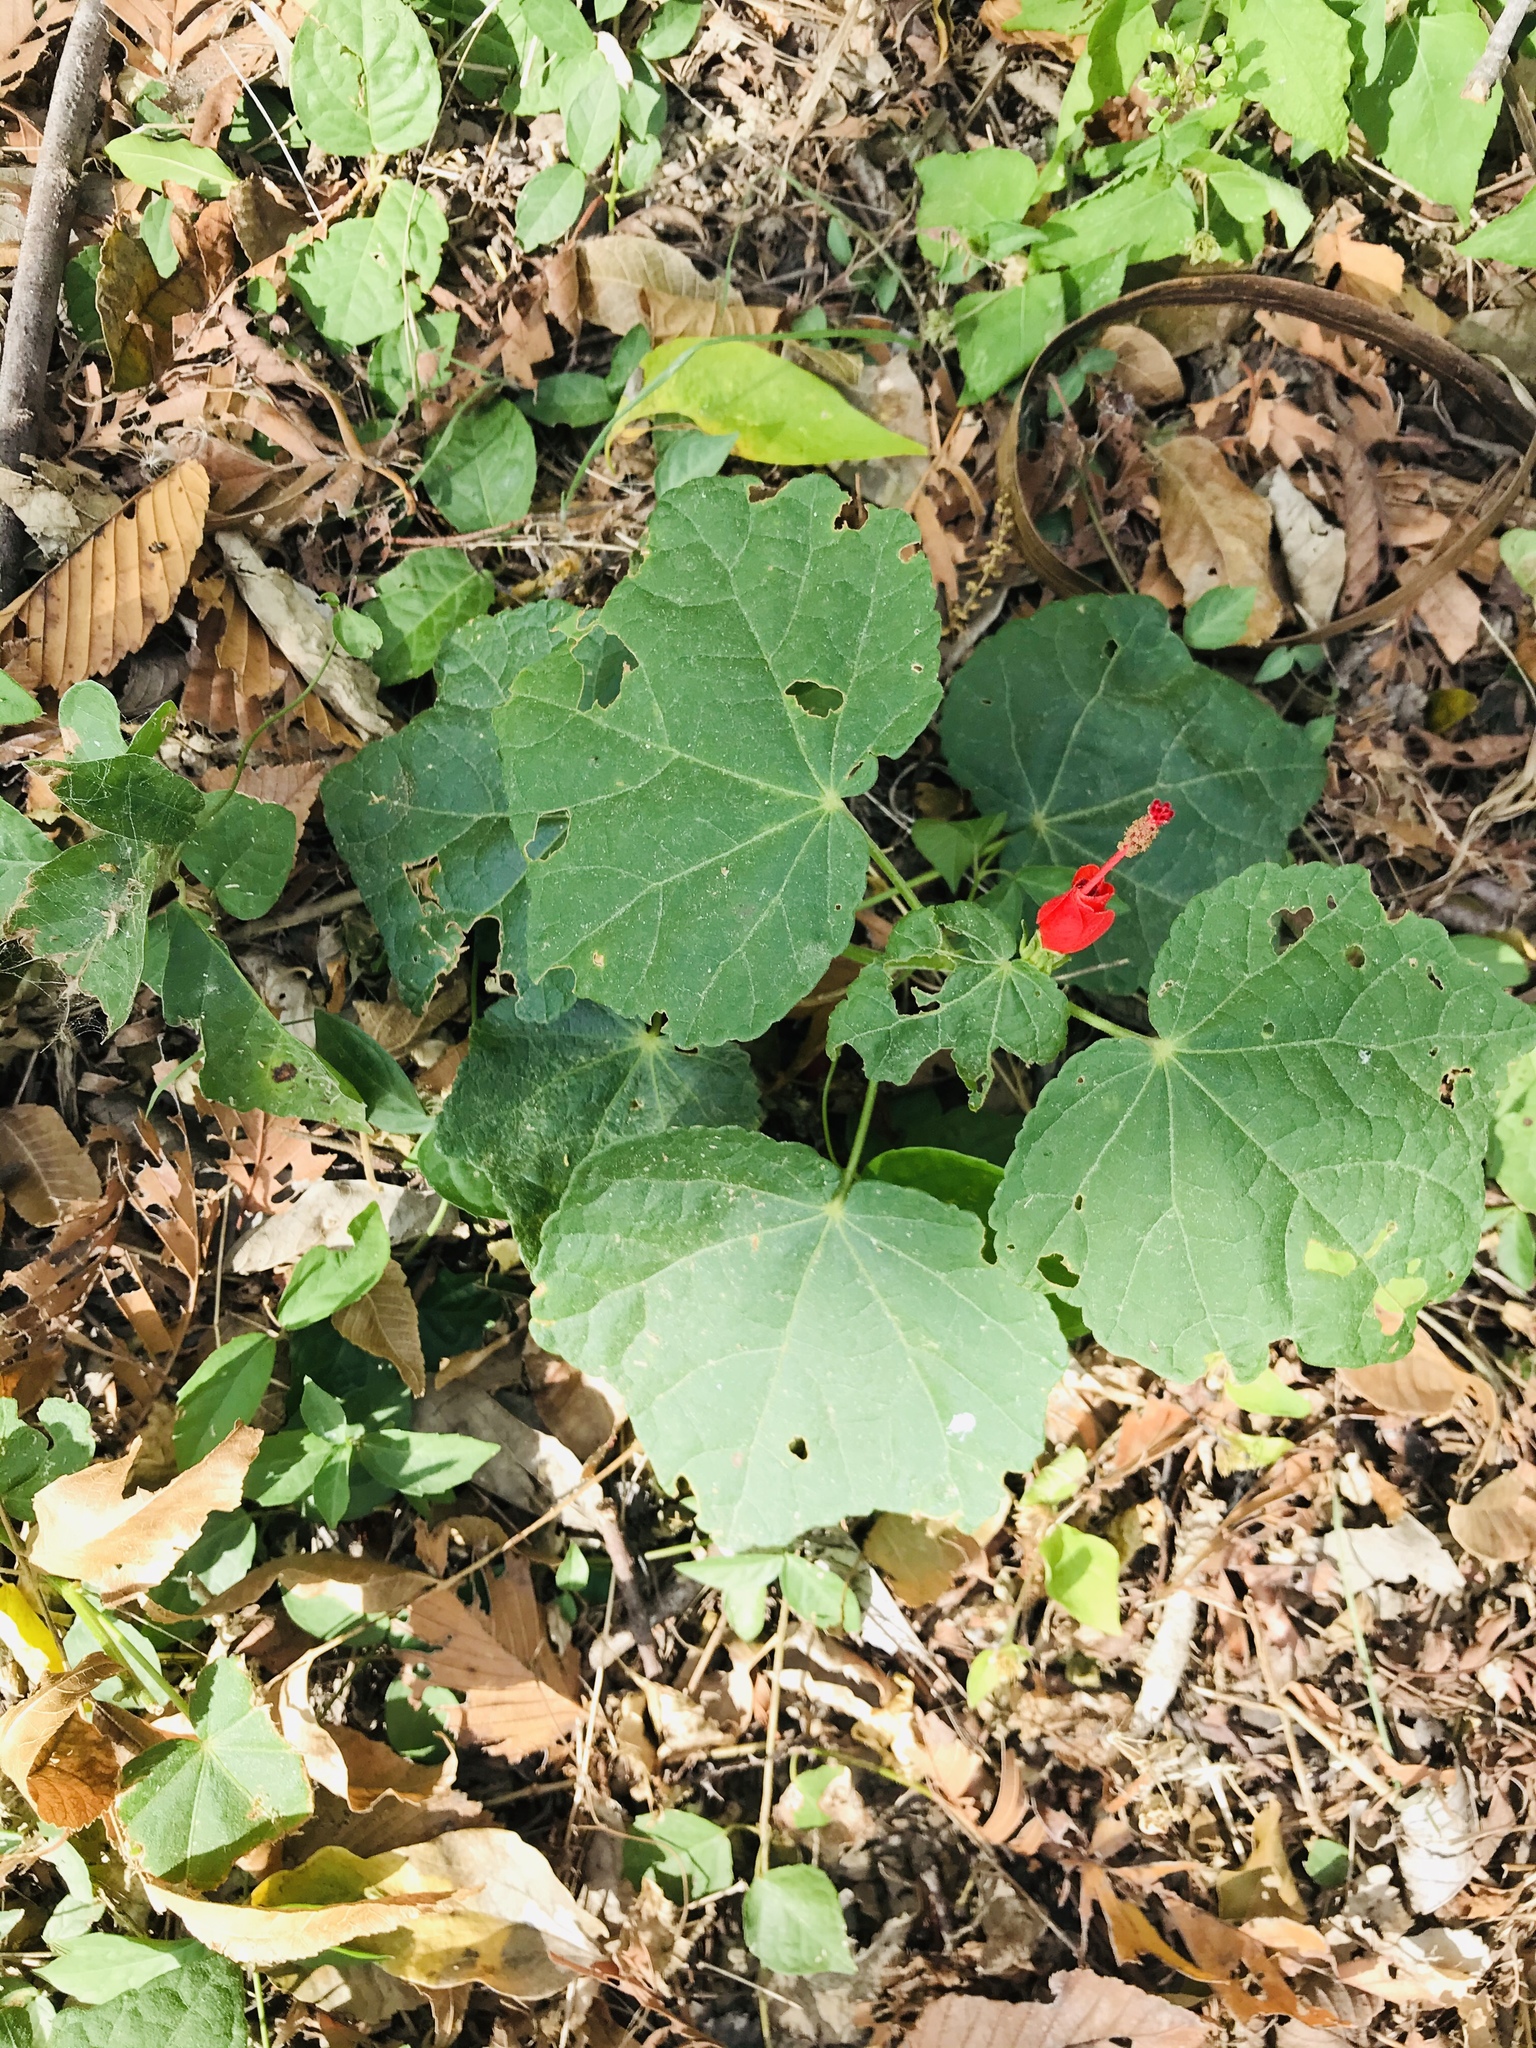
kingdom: Plantae
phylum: Tracheophyta
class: Magnoliopsida
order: Malvales
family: Malvaceae
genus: Malvaviscus
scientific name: Malvaviscus arboreus
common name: Wax mallow
